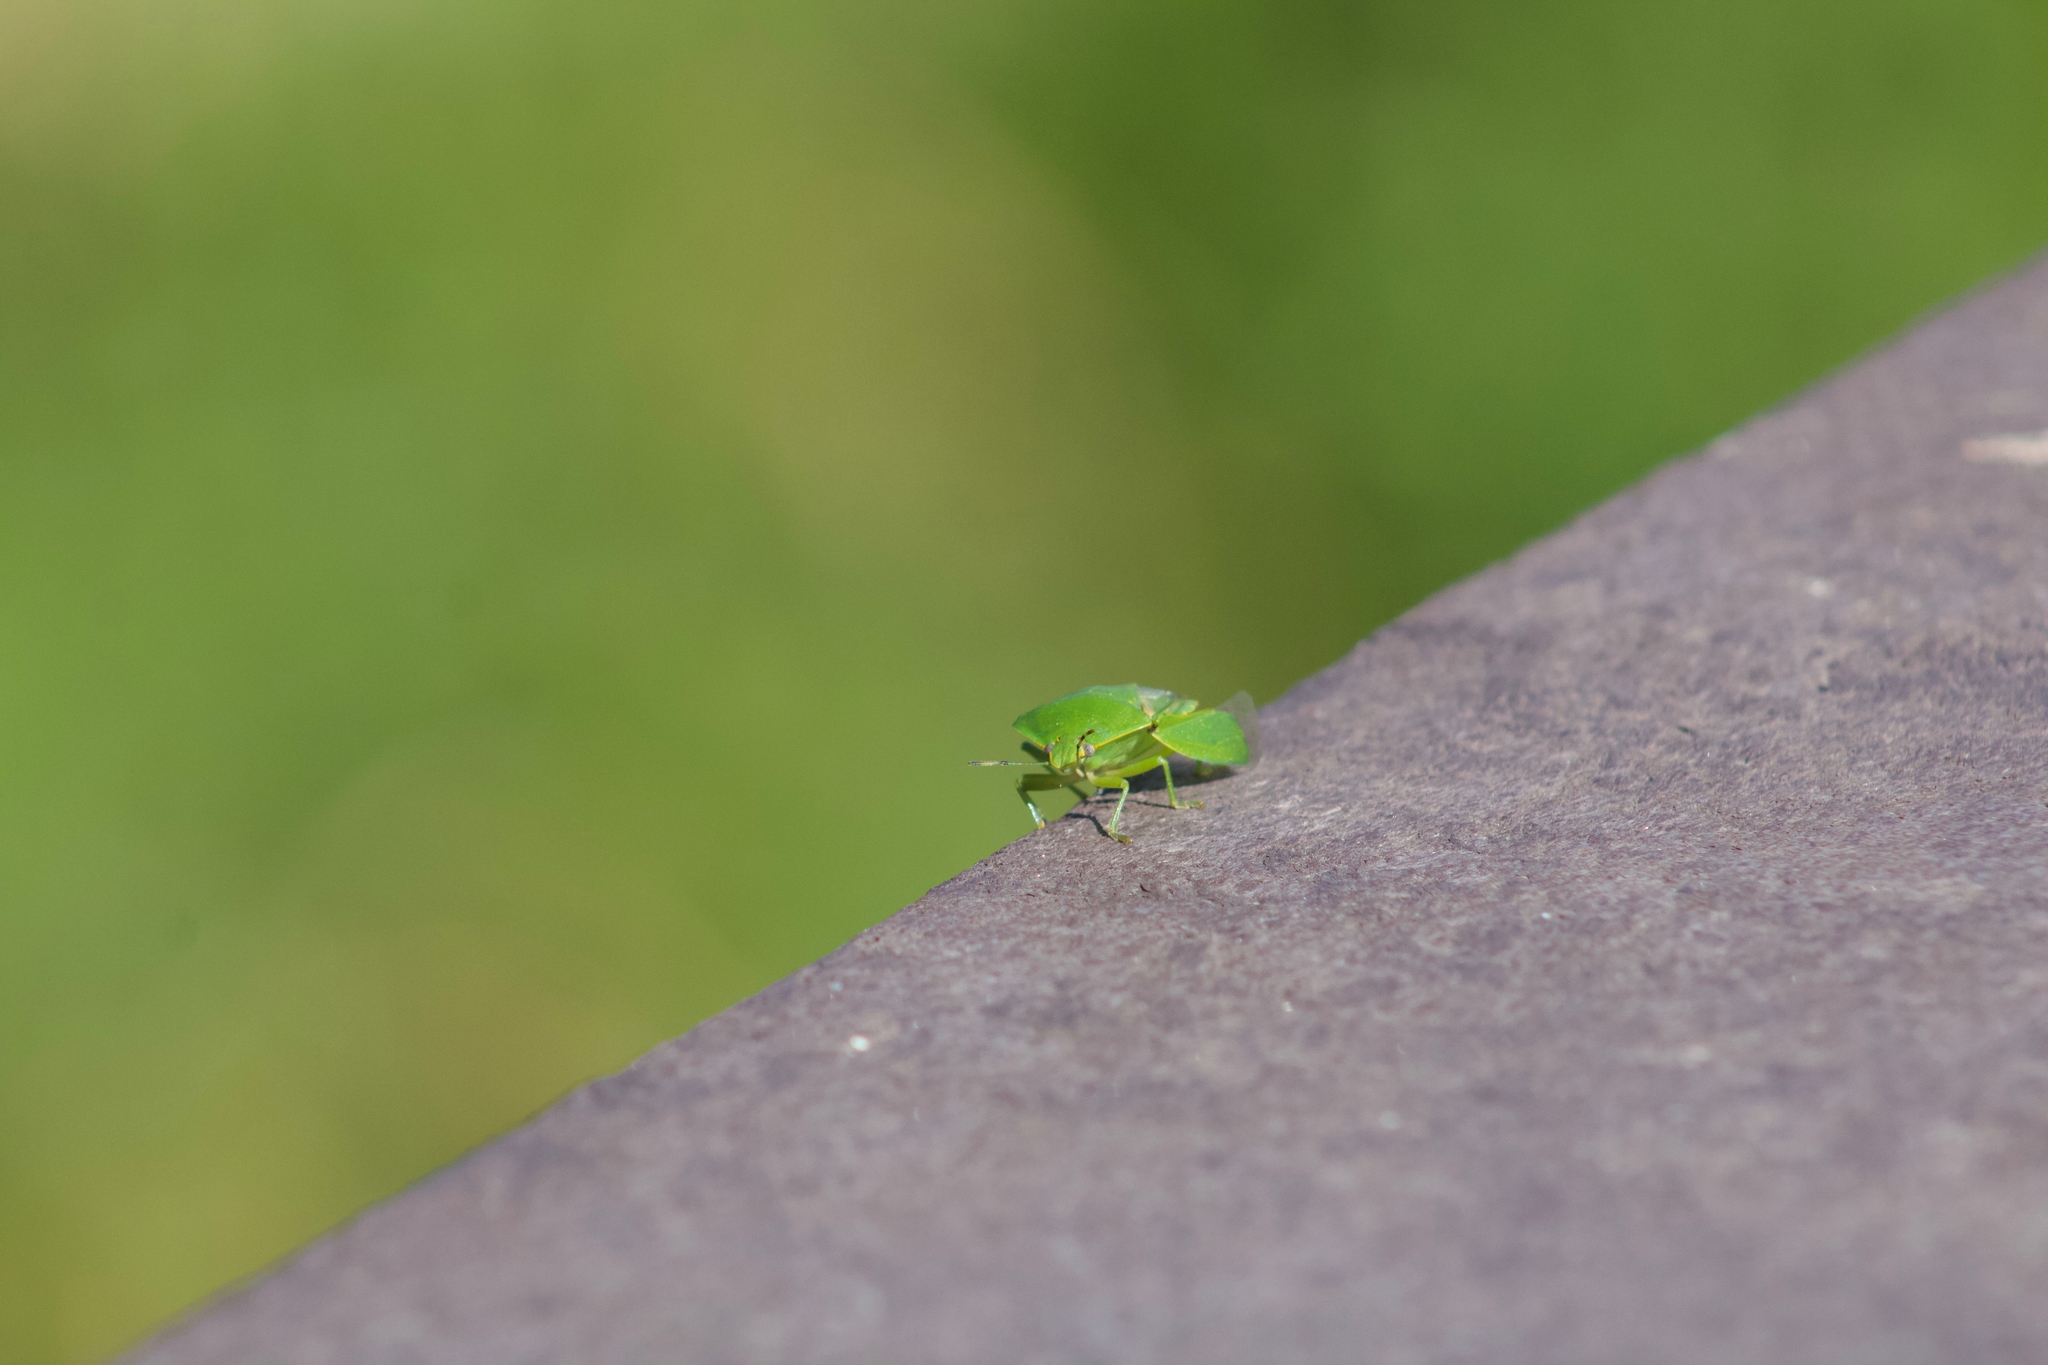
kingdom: Animalia
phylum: Arthropoda
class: Insecta
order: Hemiptera
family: Pentatomidae
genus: Chinavia
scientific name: Chinavia hilaris
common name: Green stink bug
